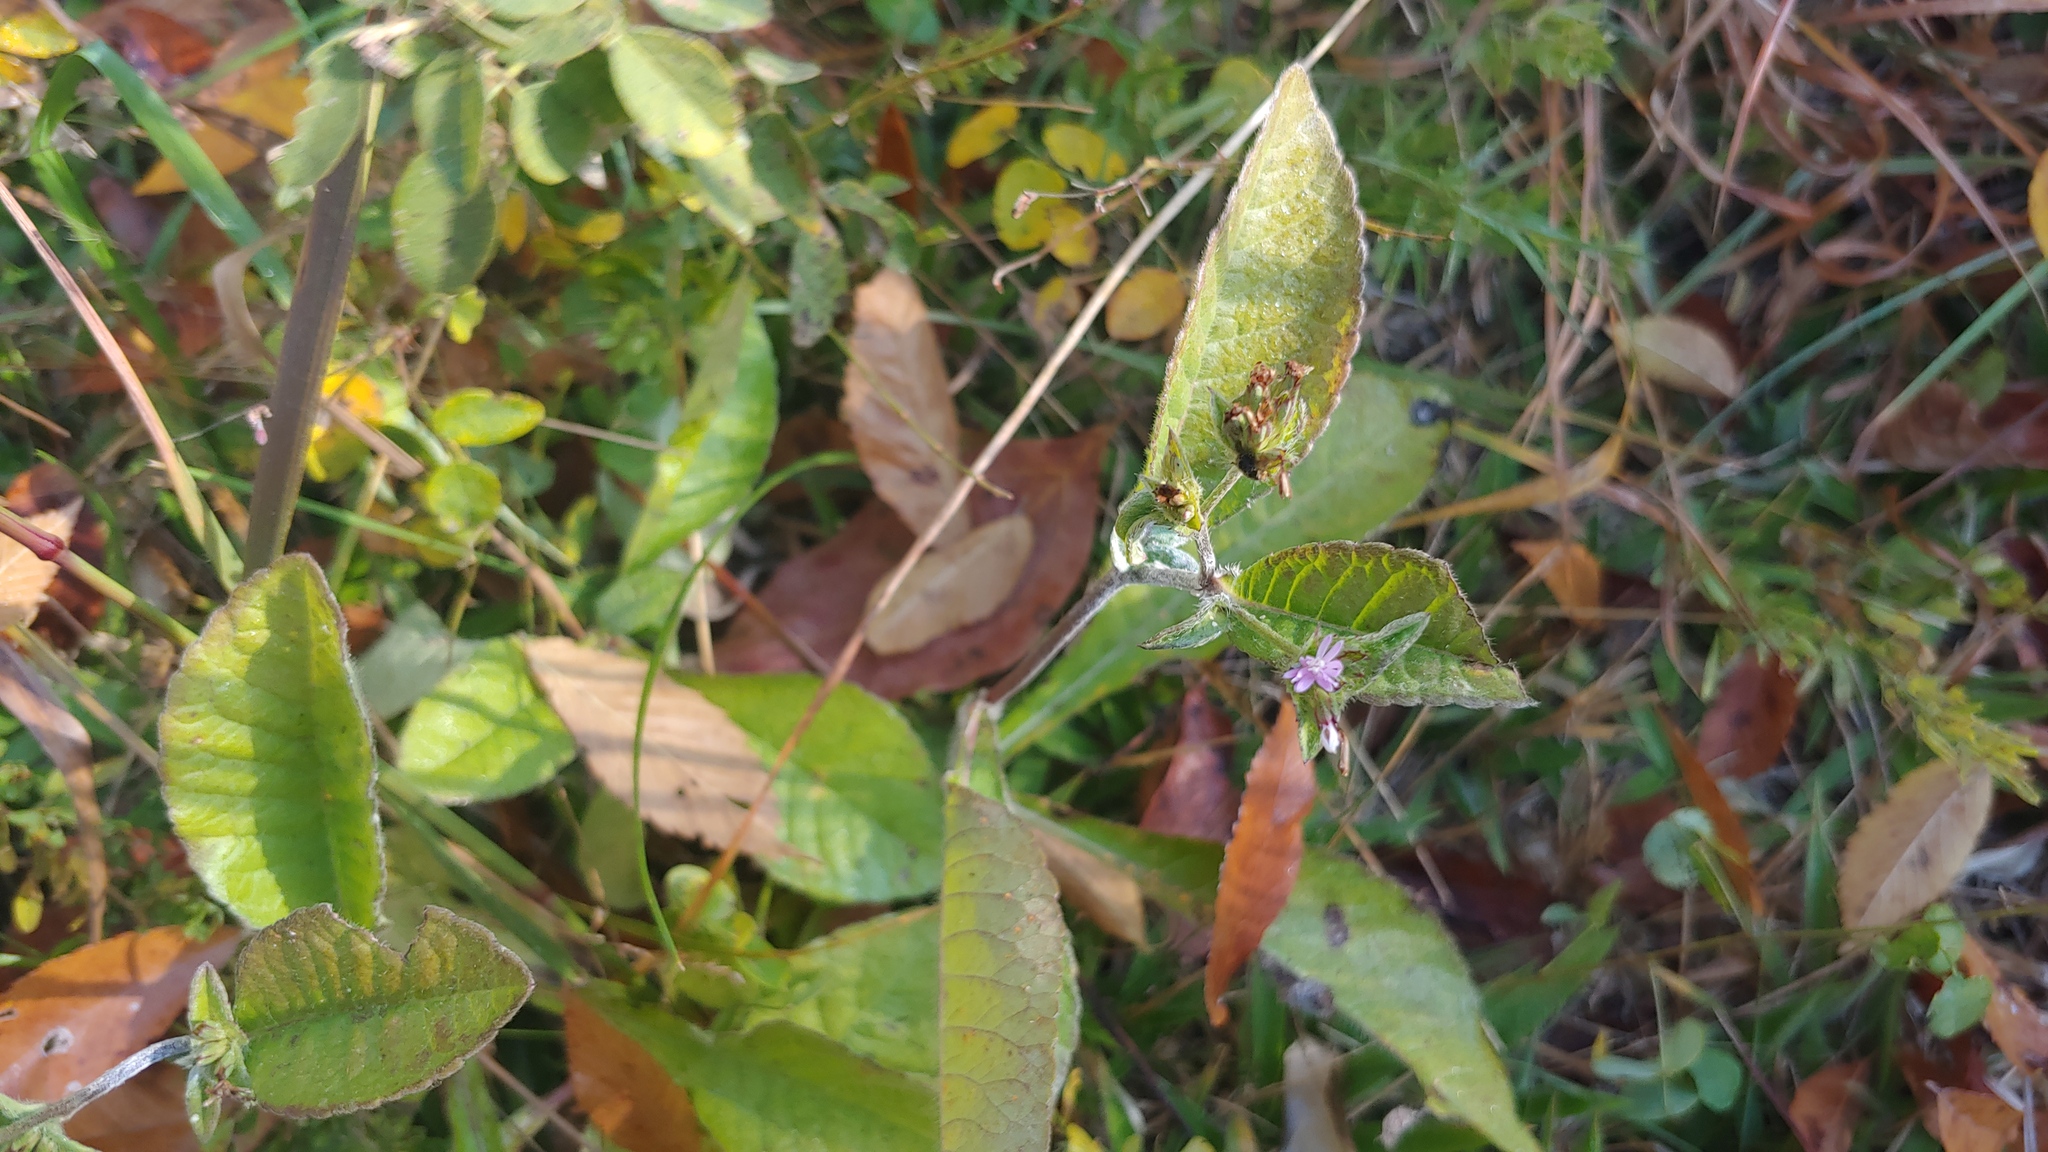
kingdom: Plantae
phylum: Tracheophyta
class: Magnoliopsida
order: Asterales
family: Asteraceae
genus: Elephantopus
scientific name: Elephantopus carolinianus
